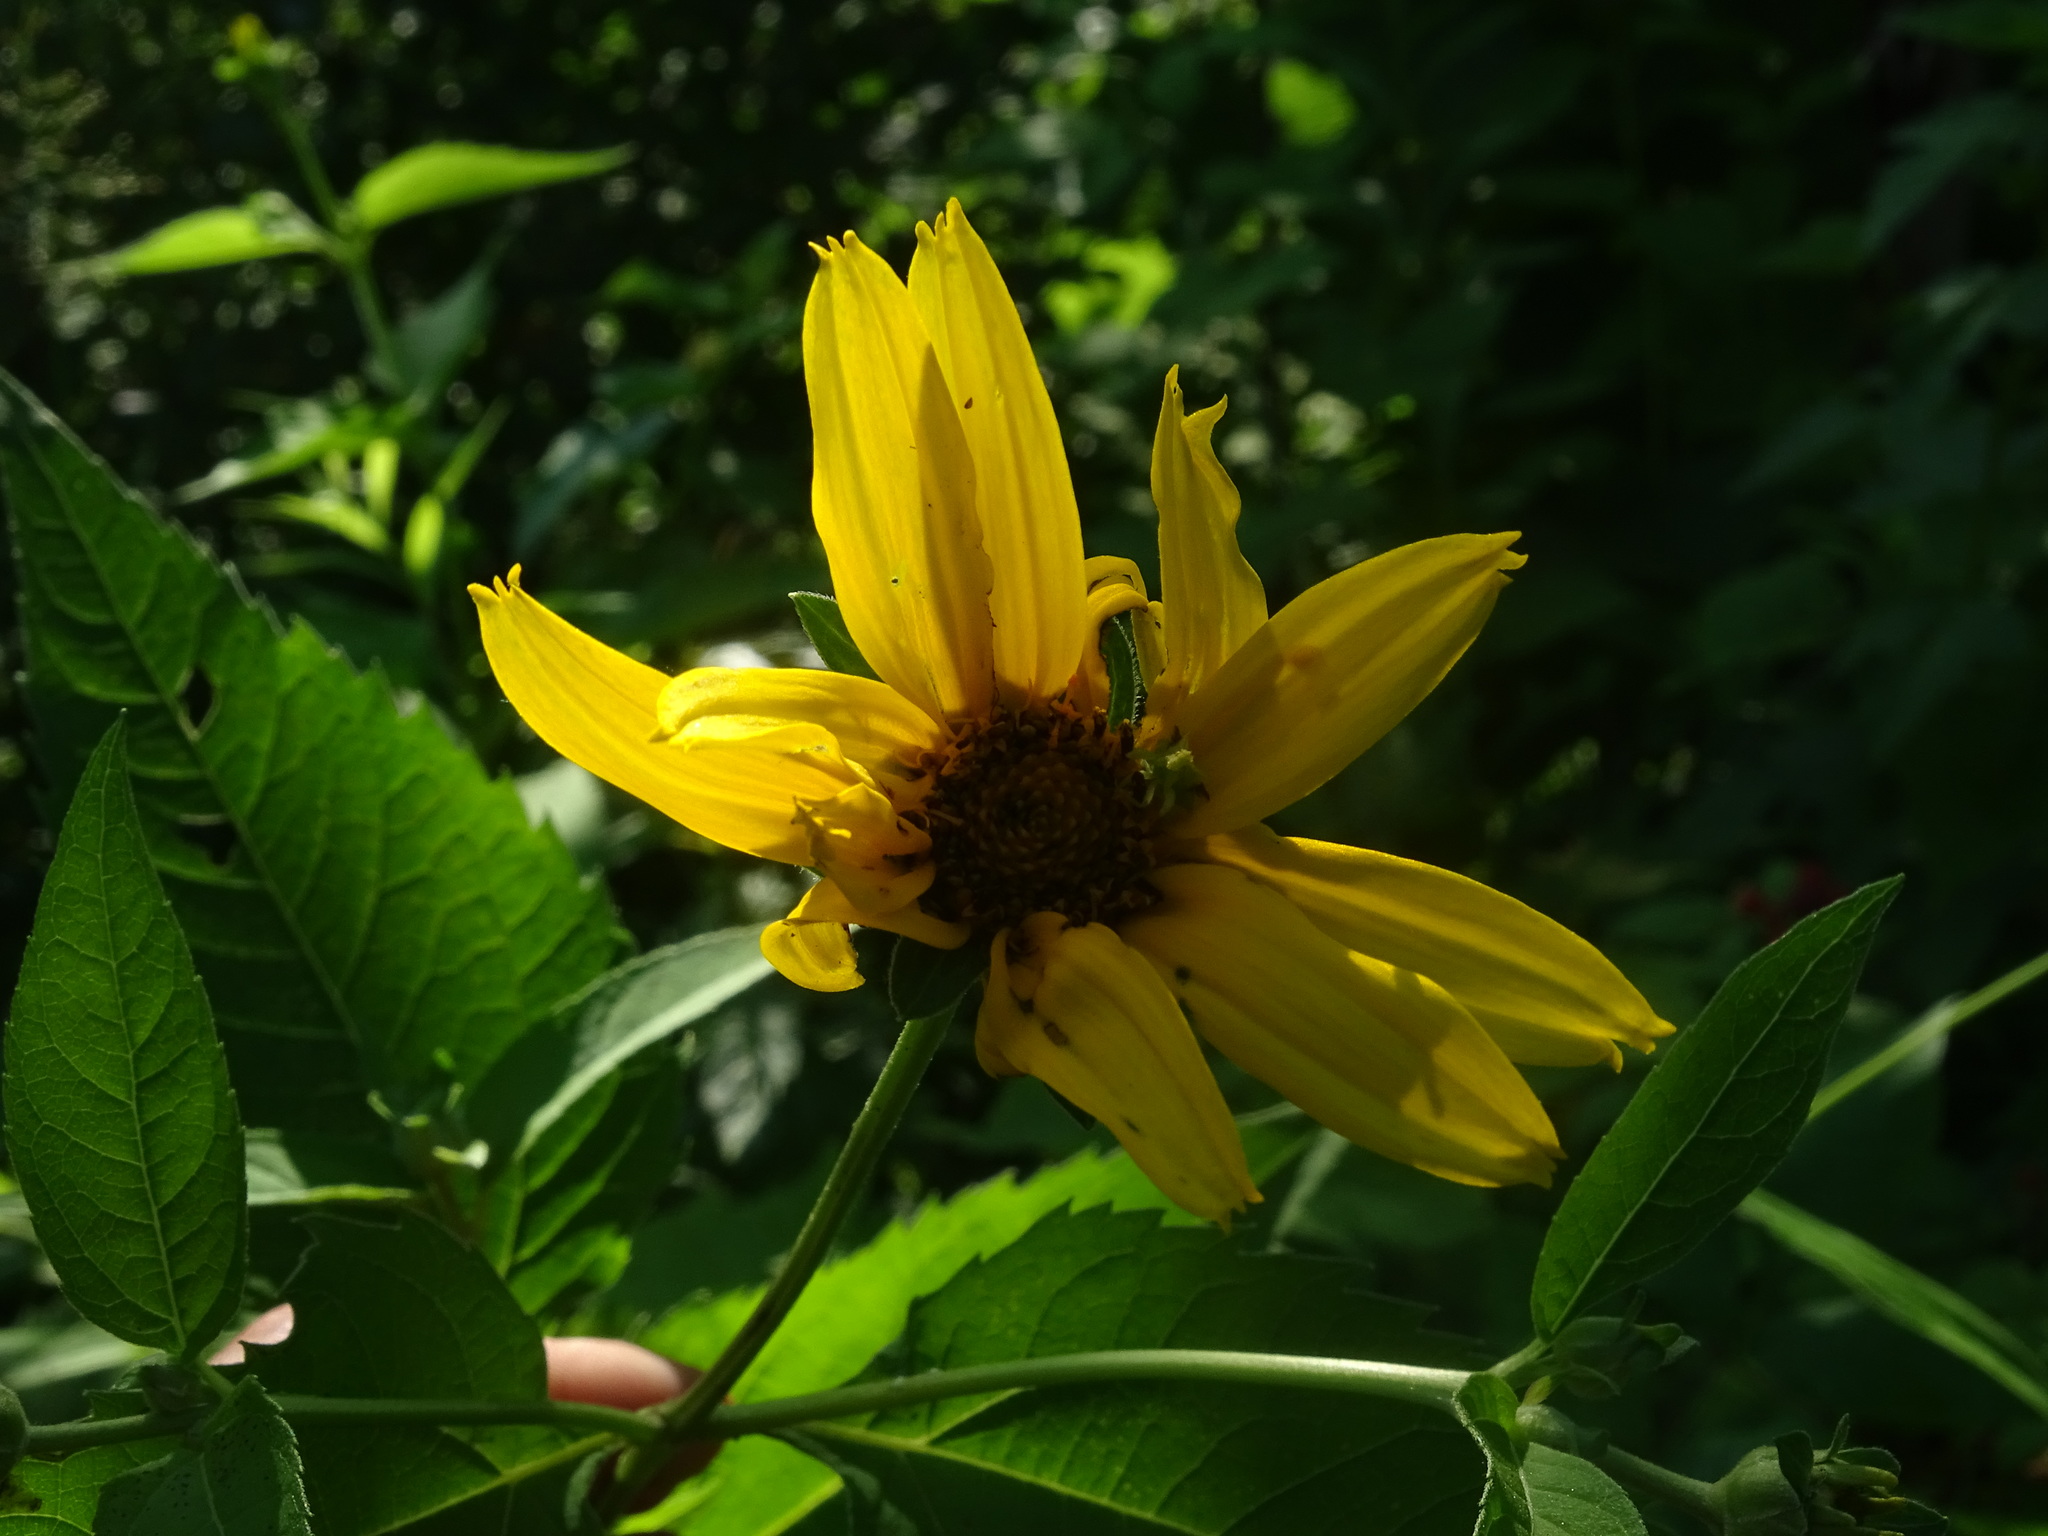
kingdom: Plantae
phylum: Tracheophyta
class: Magnoliopsida
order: Asterales
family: Asteraceae
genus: Heliopsis
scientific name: Heliopsis helianthoides
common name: False sunflower
